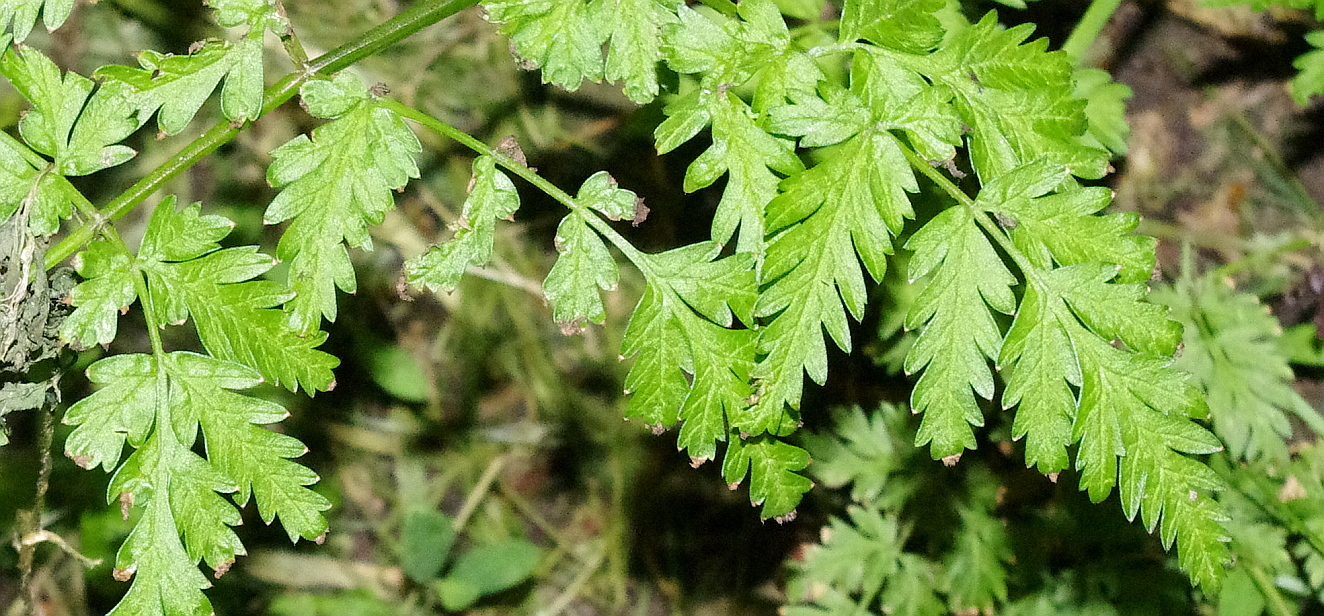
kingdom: Plantae
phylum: Tracheophyta
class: Magnoliopsida
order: Apiales
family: Apiaceae
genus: Anthriscus
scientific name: Anthriscus sylvestris
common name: Cow parsley
